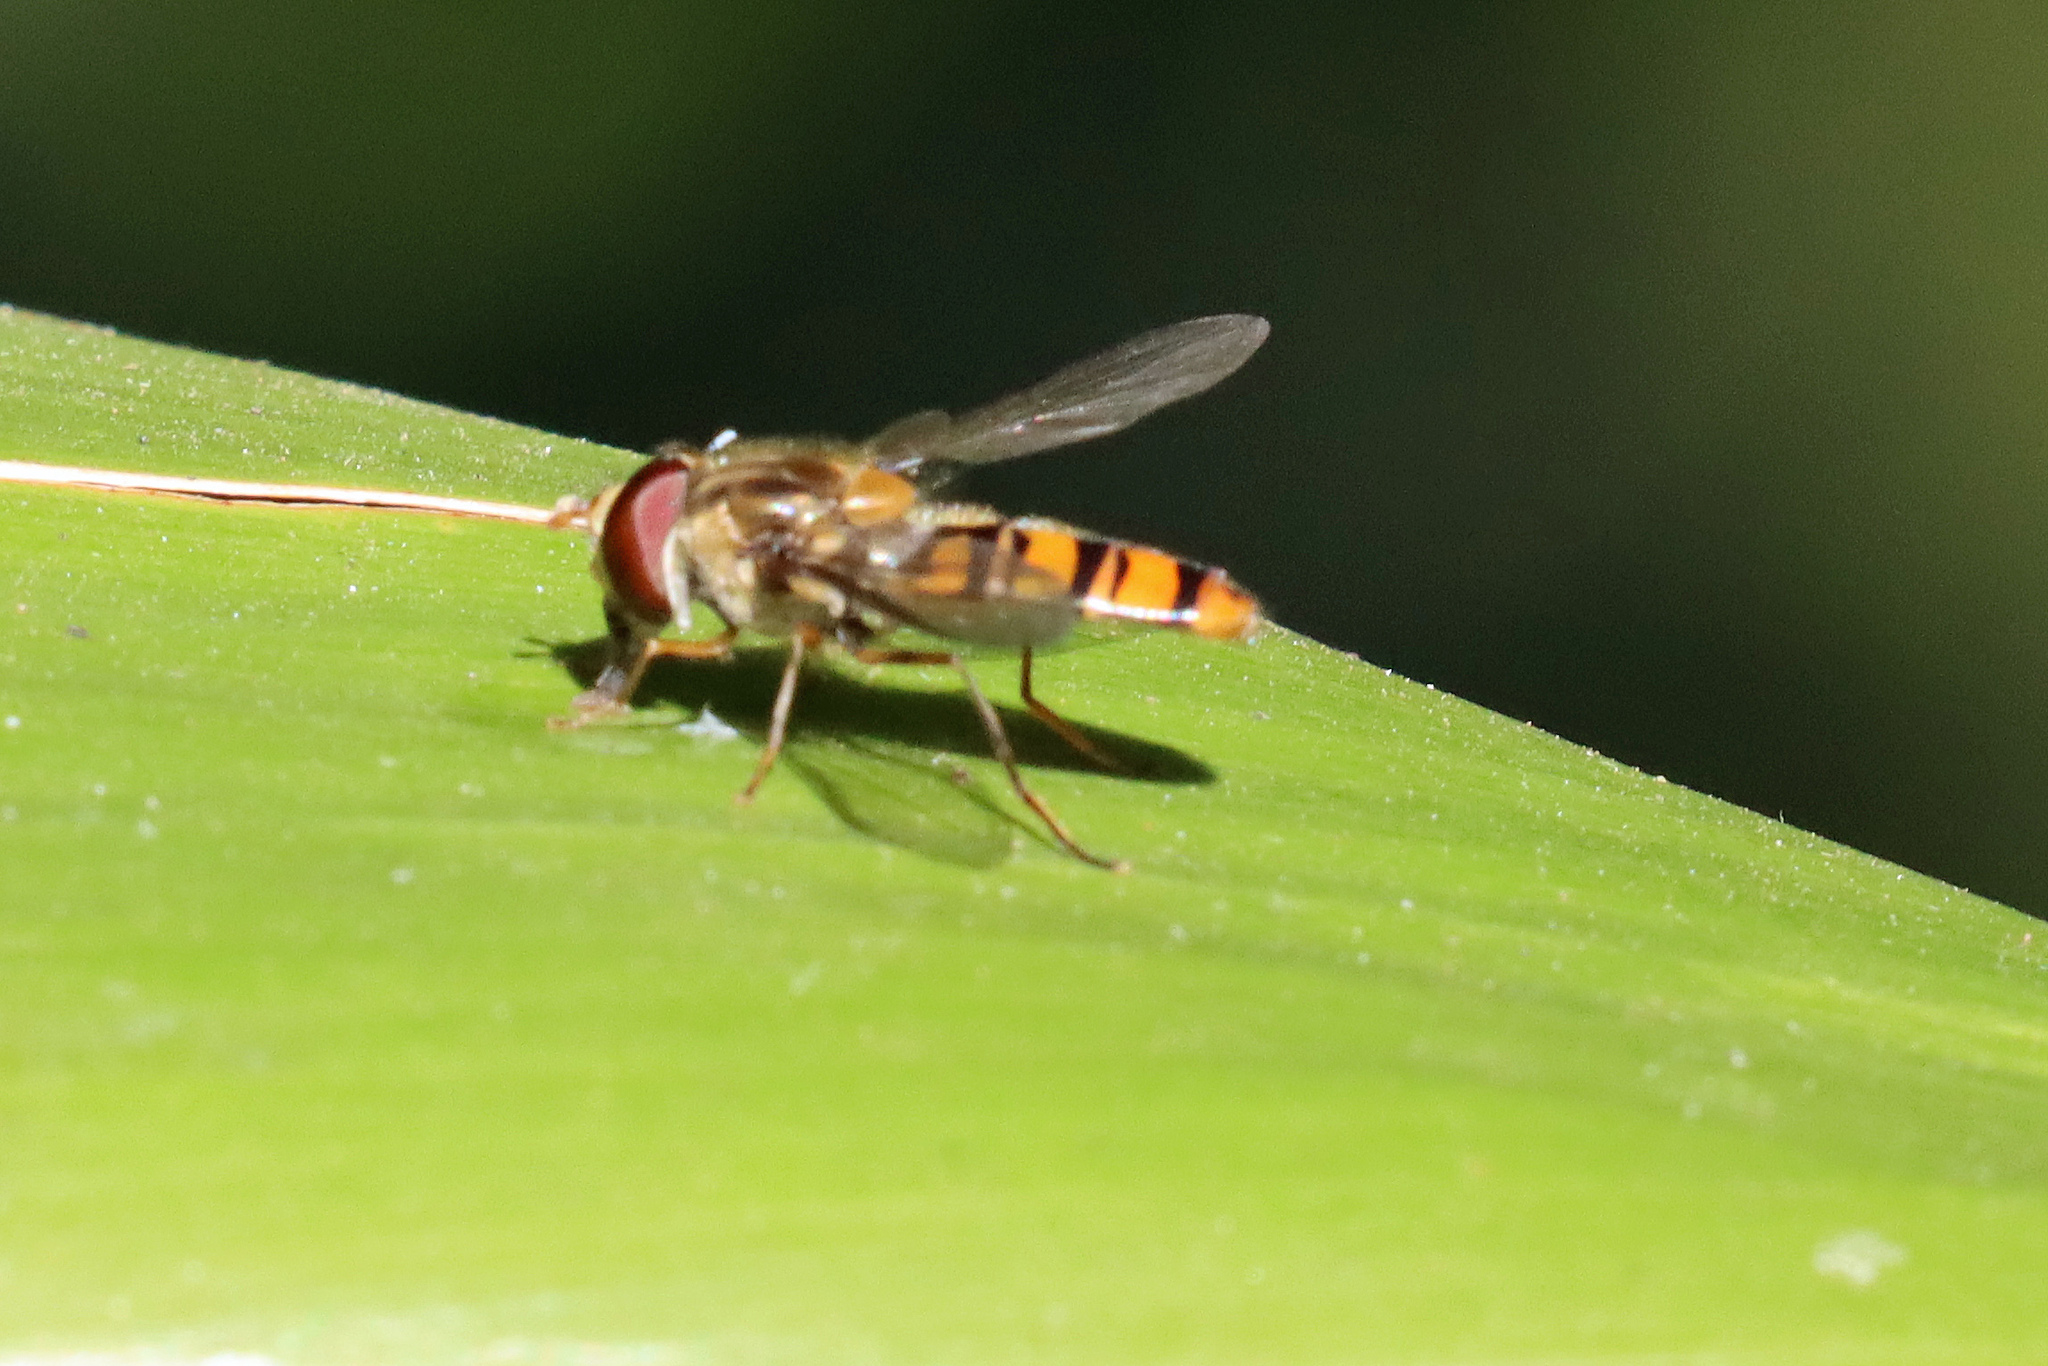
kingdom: Animalia
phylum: Arthropoda
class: Insecta
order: Diptera
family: Syrphidae
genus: Episyrphus
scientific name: Episyrphus balteatus
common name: Marmalade hoverfly
